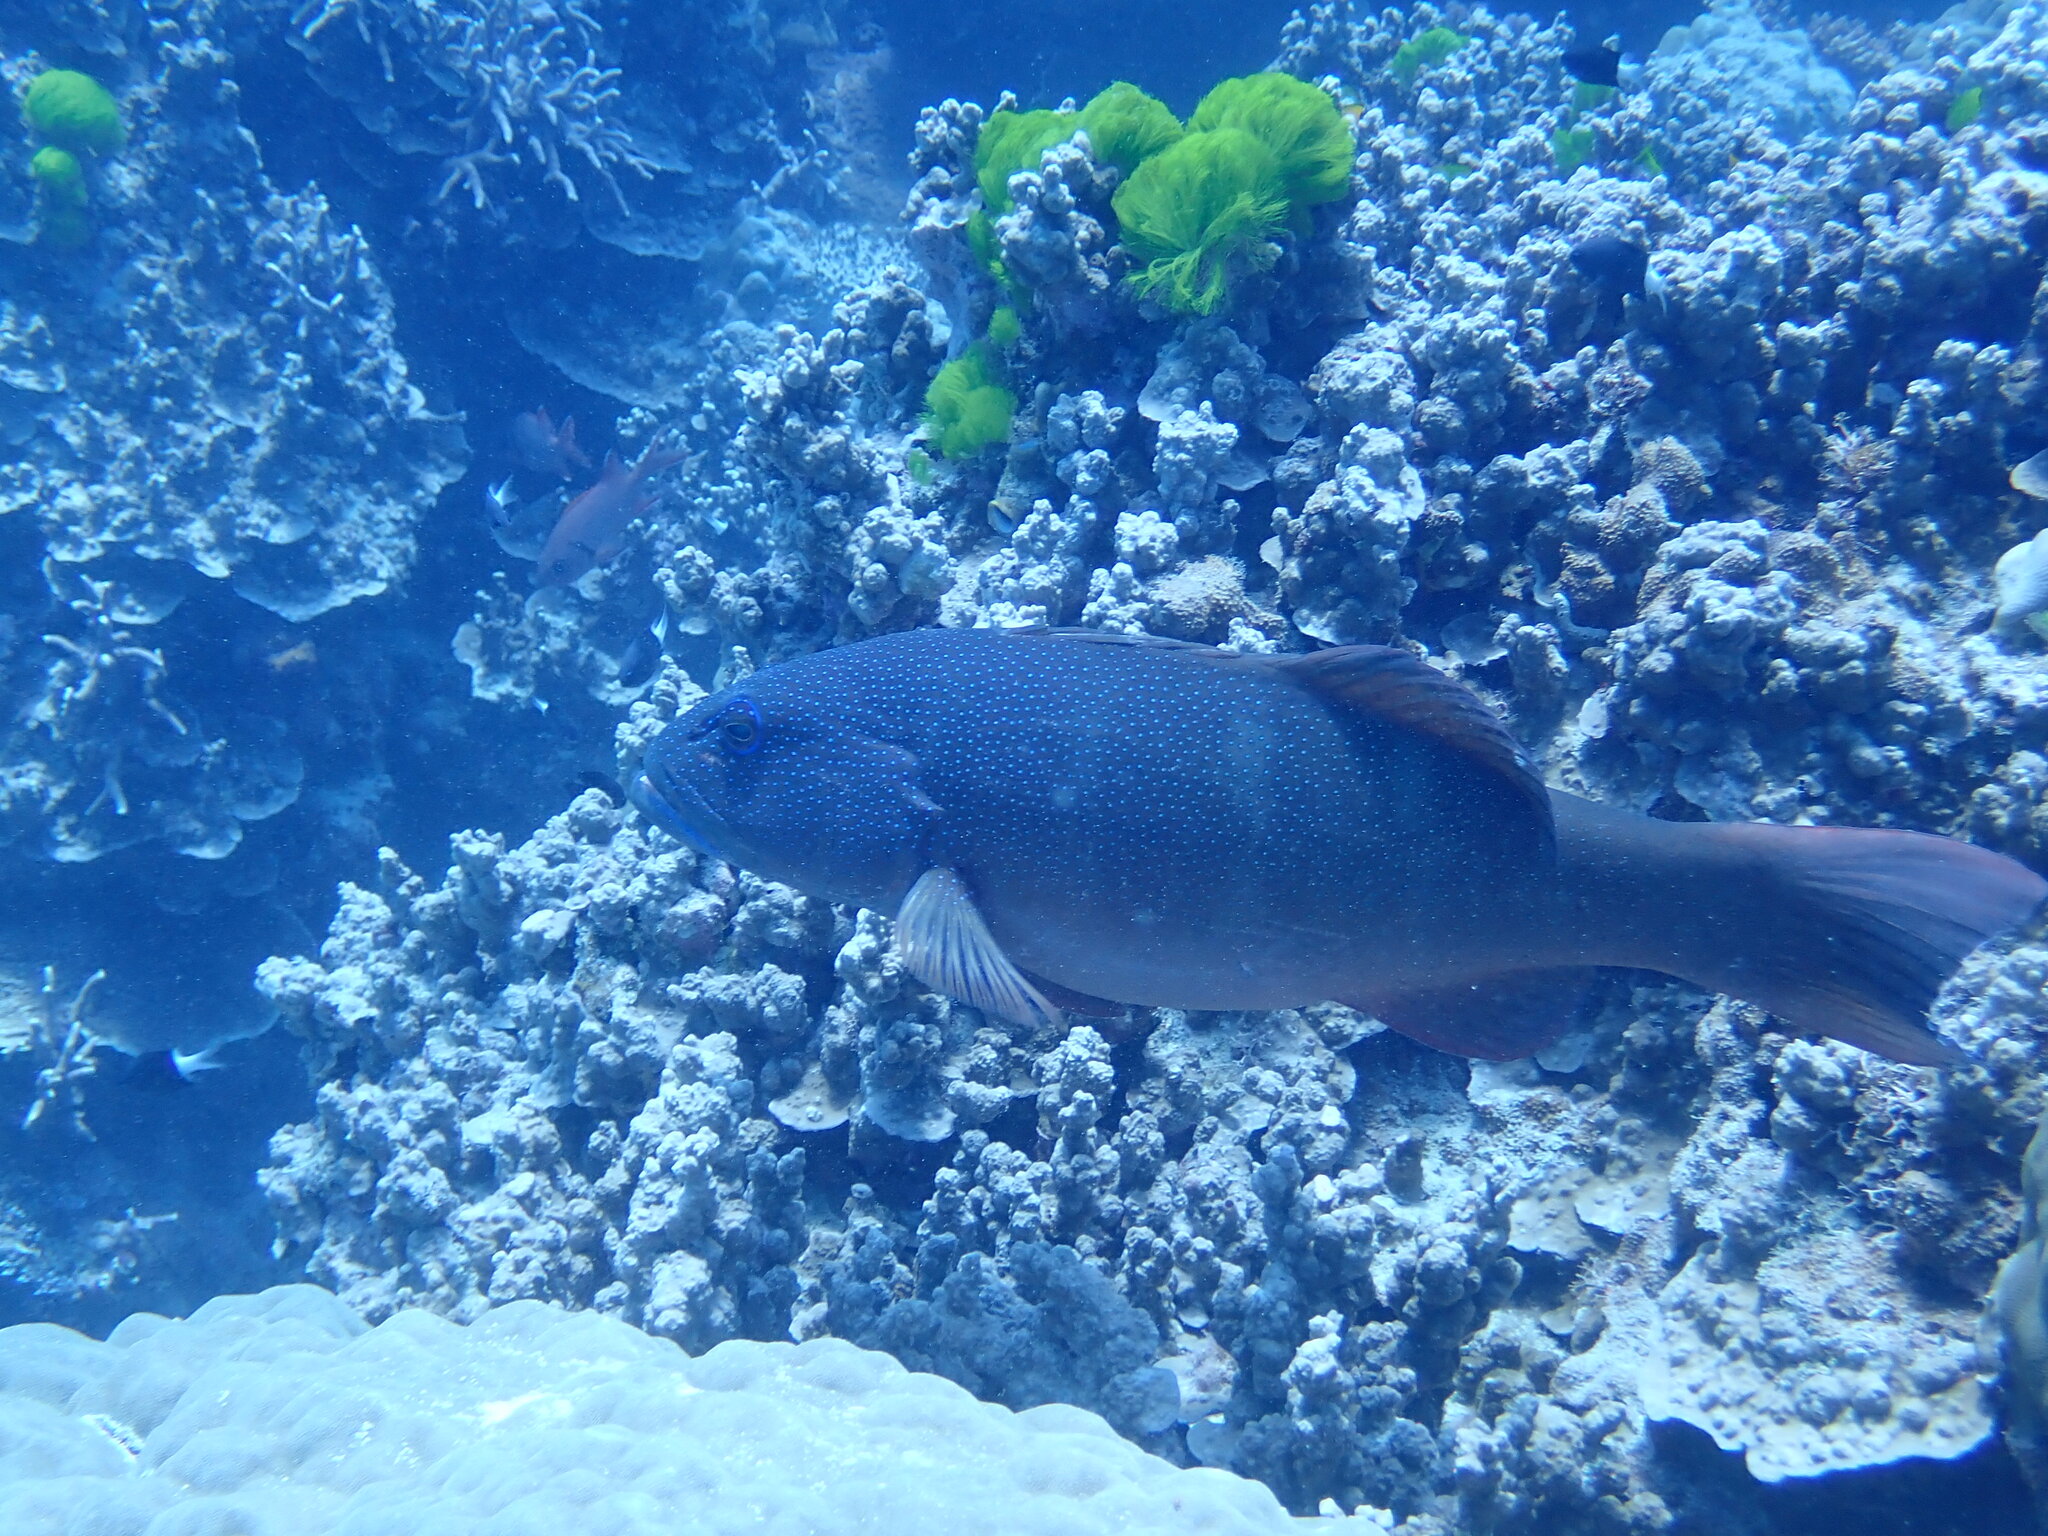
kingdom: Animalia
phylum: Chordata
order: Perciformes
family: Serranidae
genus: Plectropomus
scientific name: Plectropomus leopardus
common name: Coral trout
